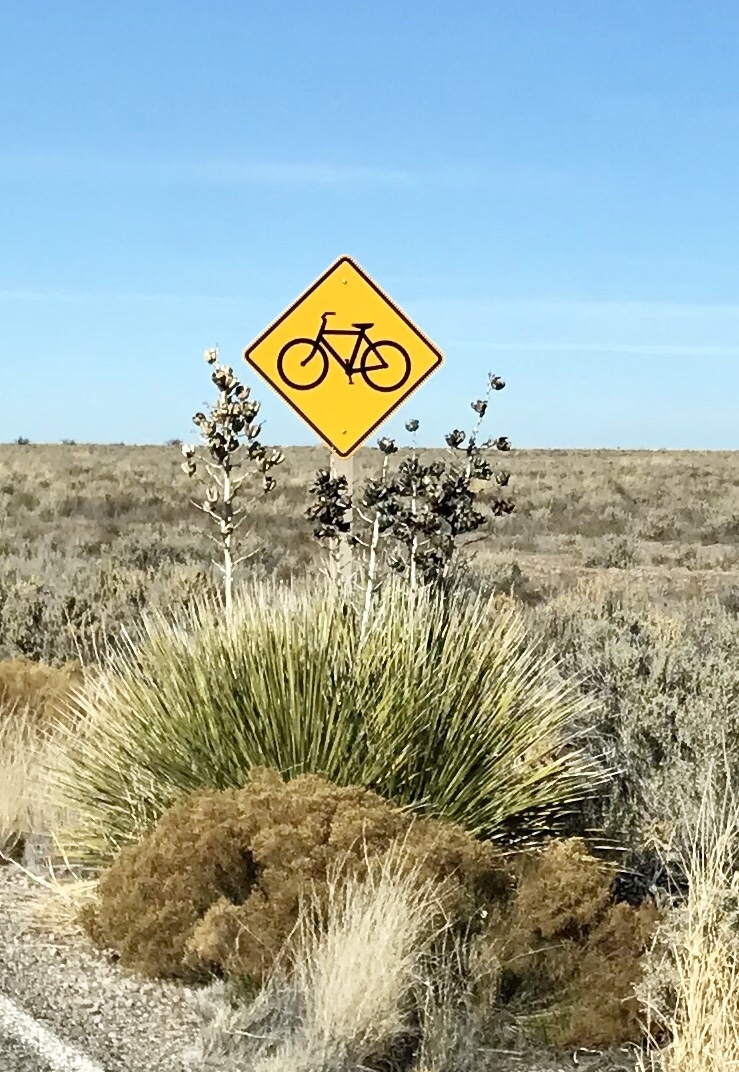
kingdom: Plantae
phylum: Tracheophyta
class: Liliopsida
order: Asparagales
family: Asparagaceae
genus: Yucca
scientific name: Yucca elata
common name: Palmella
